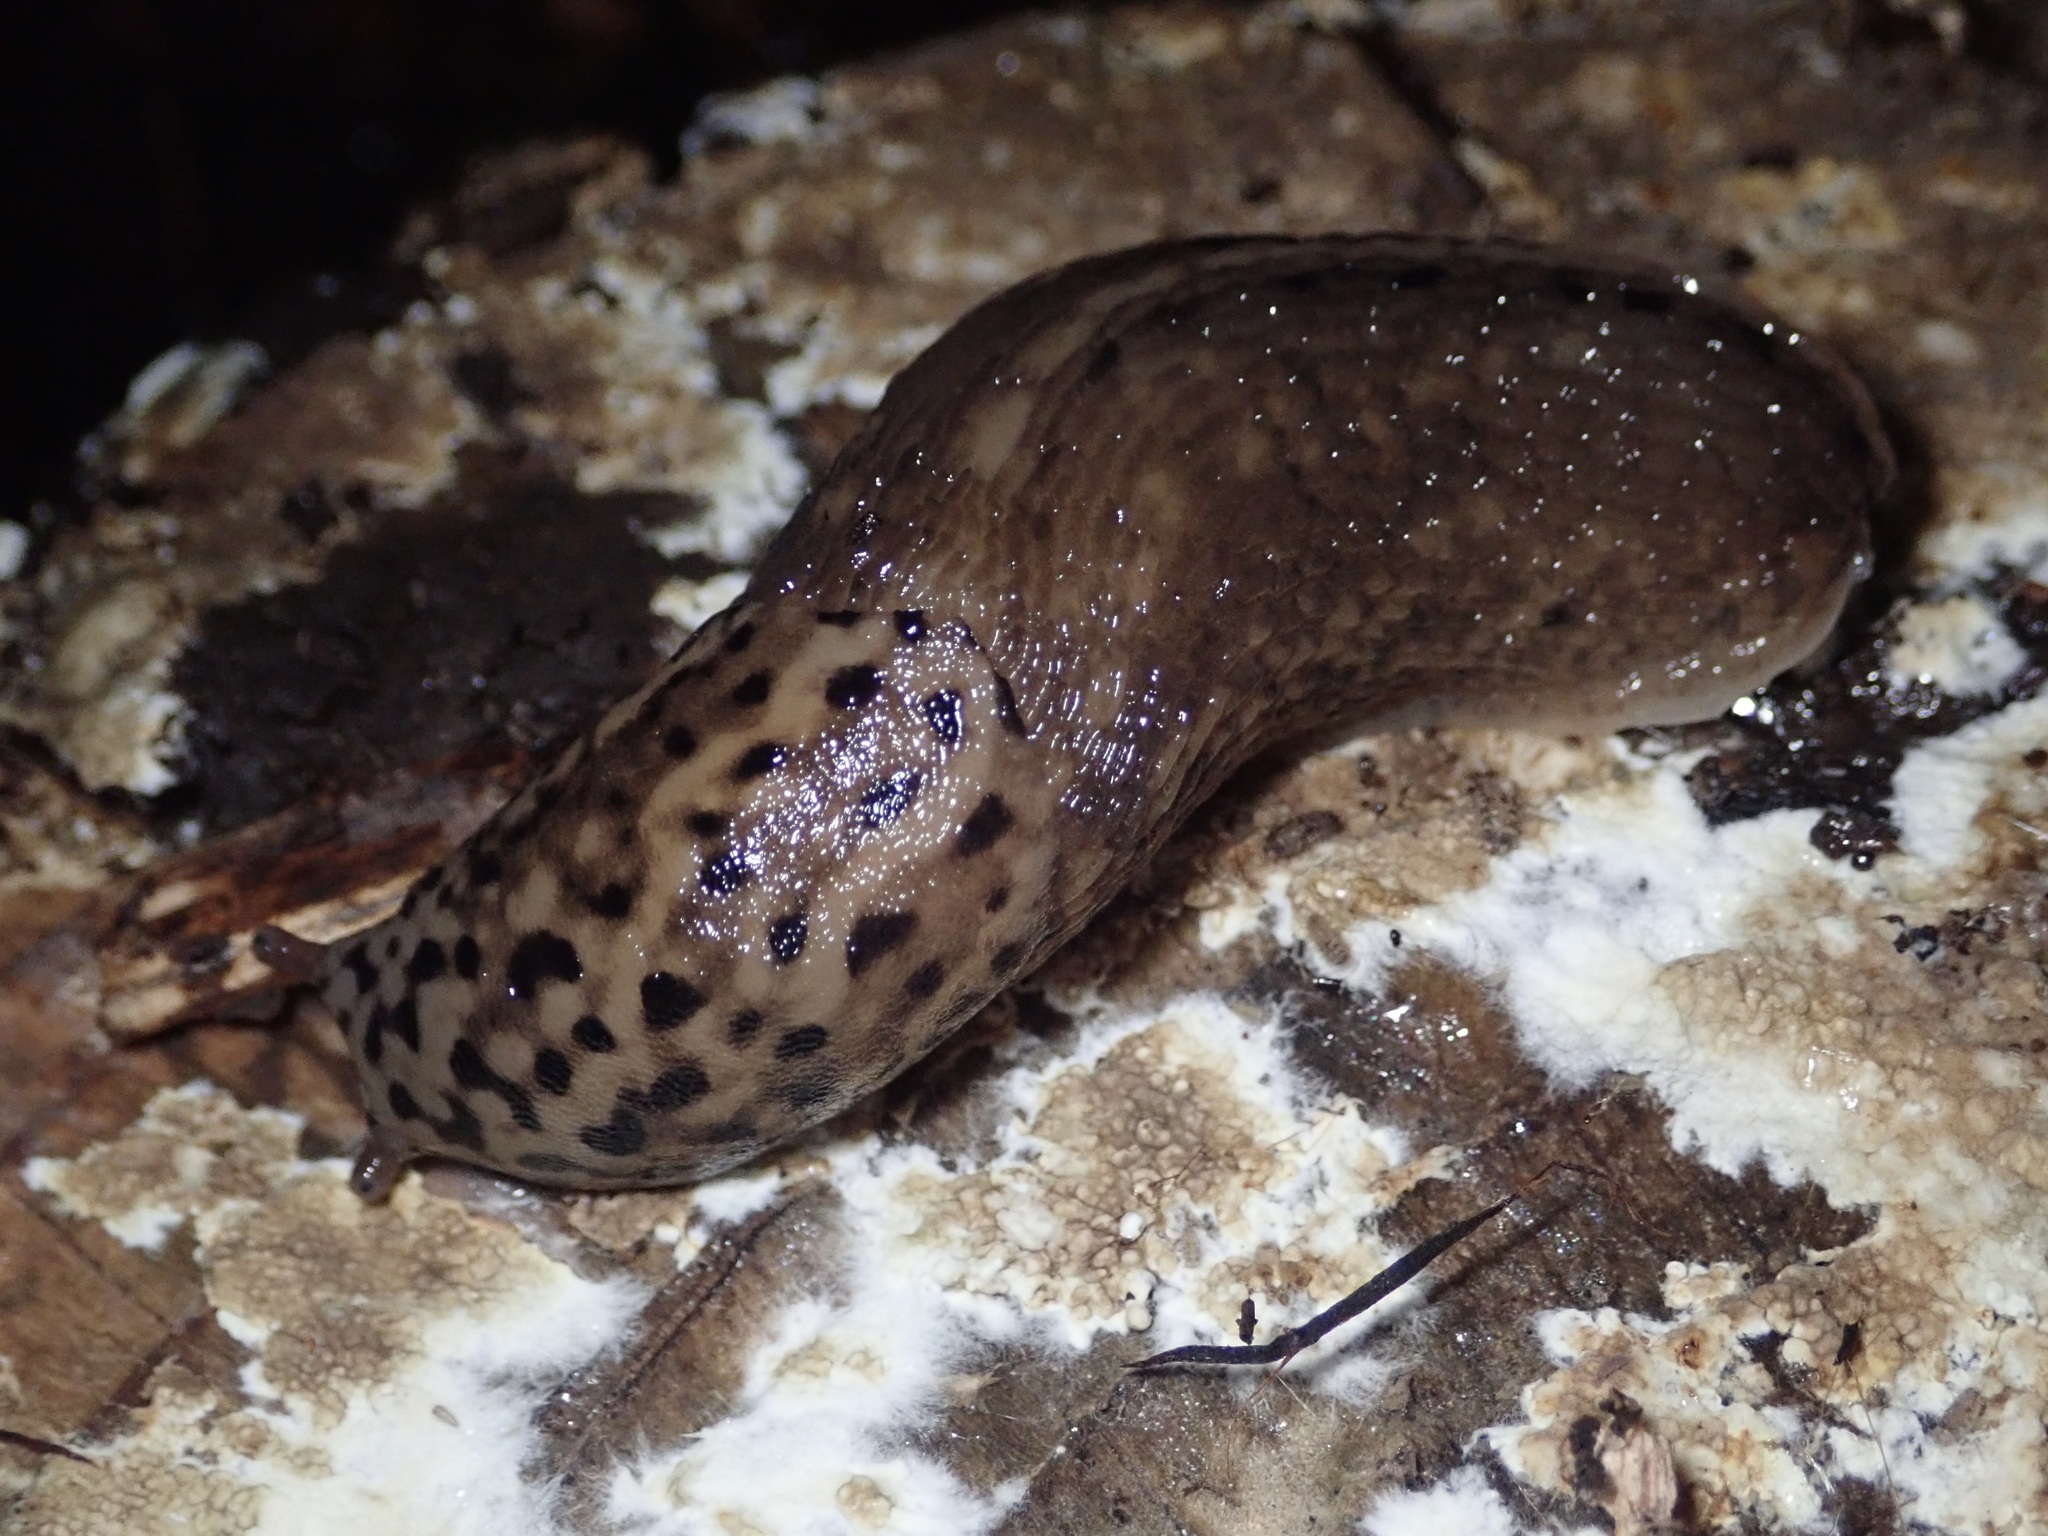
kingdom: Animalia
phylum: Mollusca
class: Gastropoda
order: Stylommatophora
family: Limacidae
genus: Limax
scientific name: Limax maximus
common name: Great grey slug
